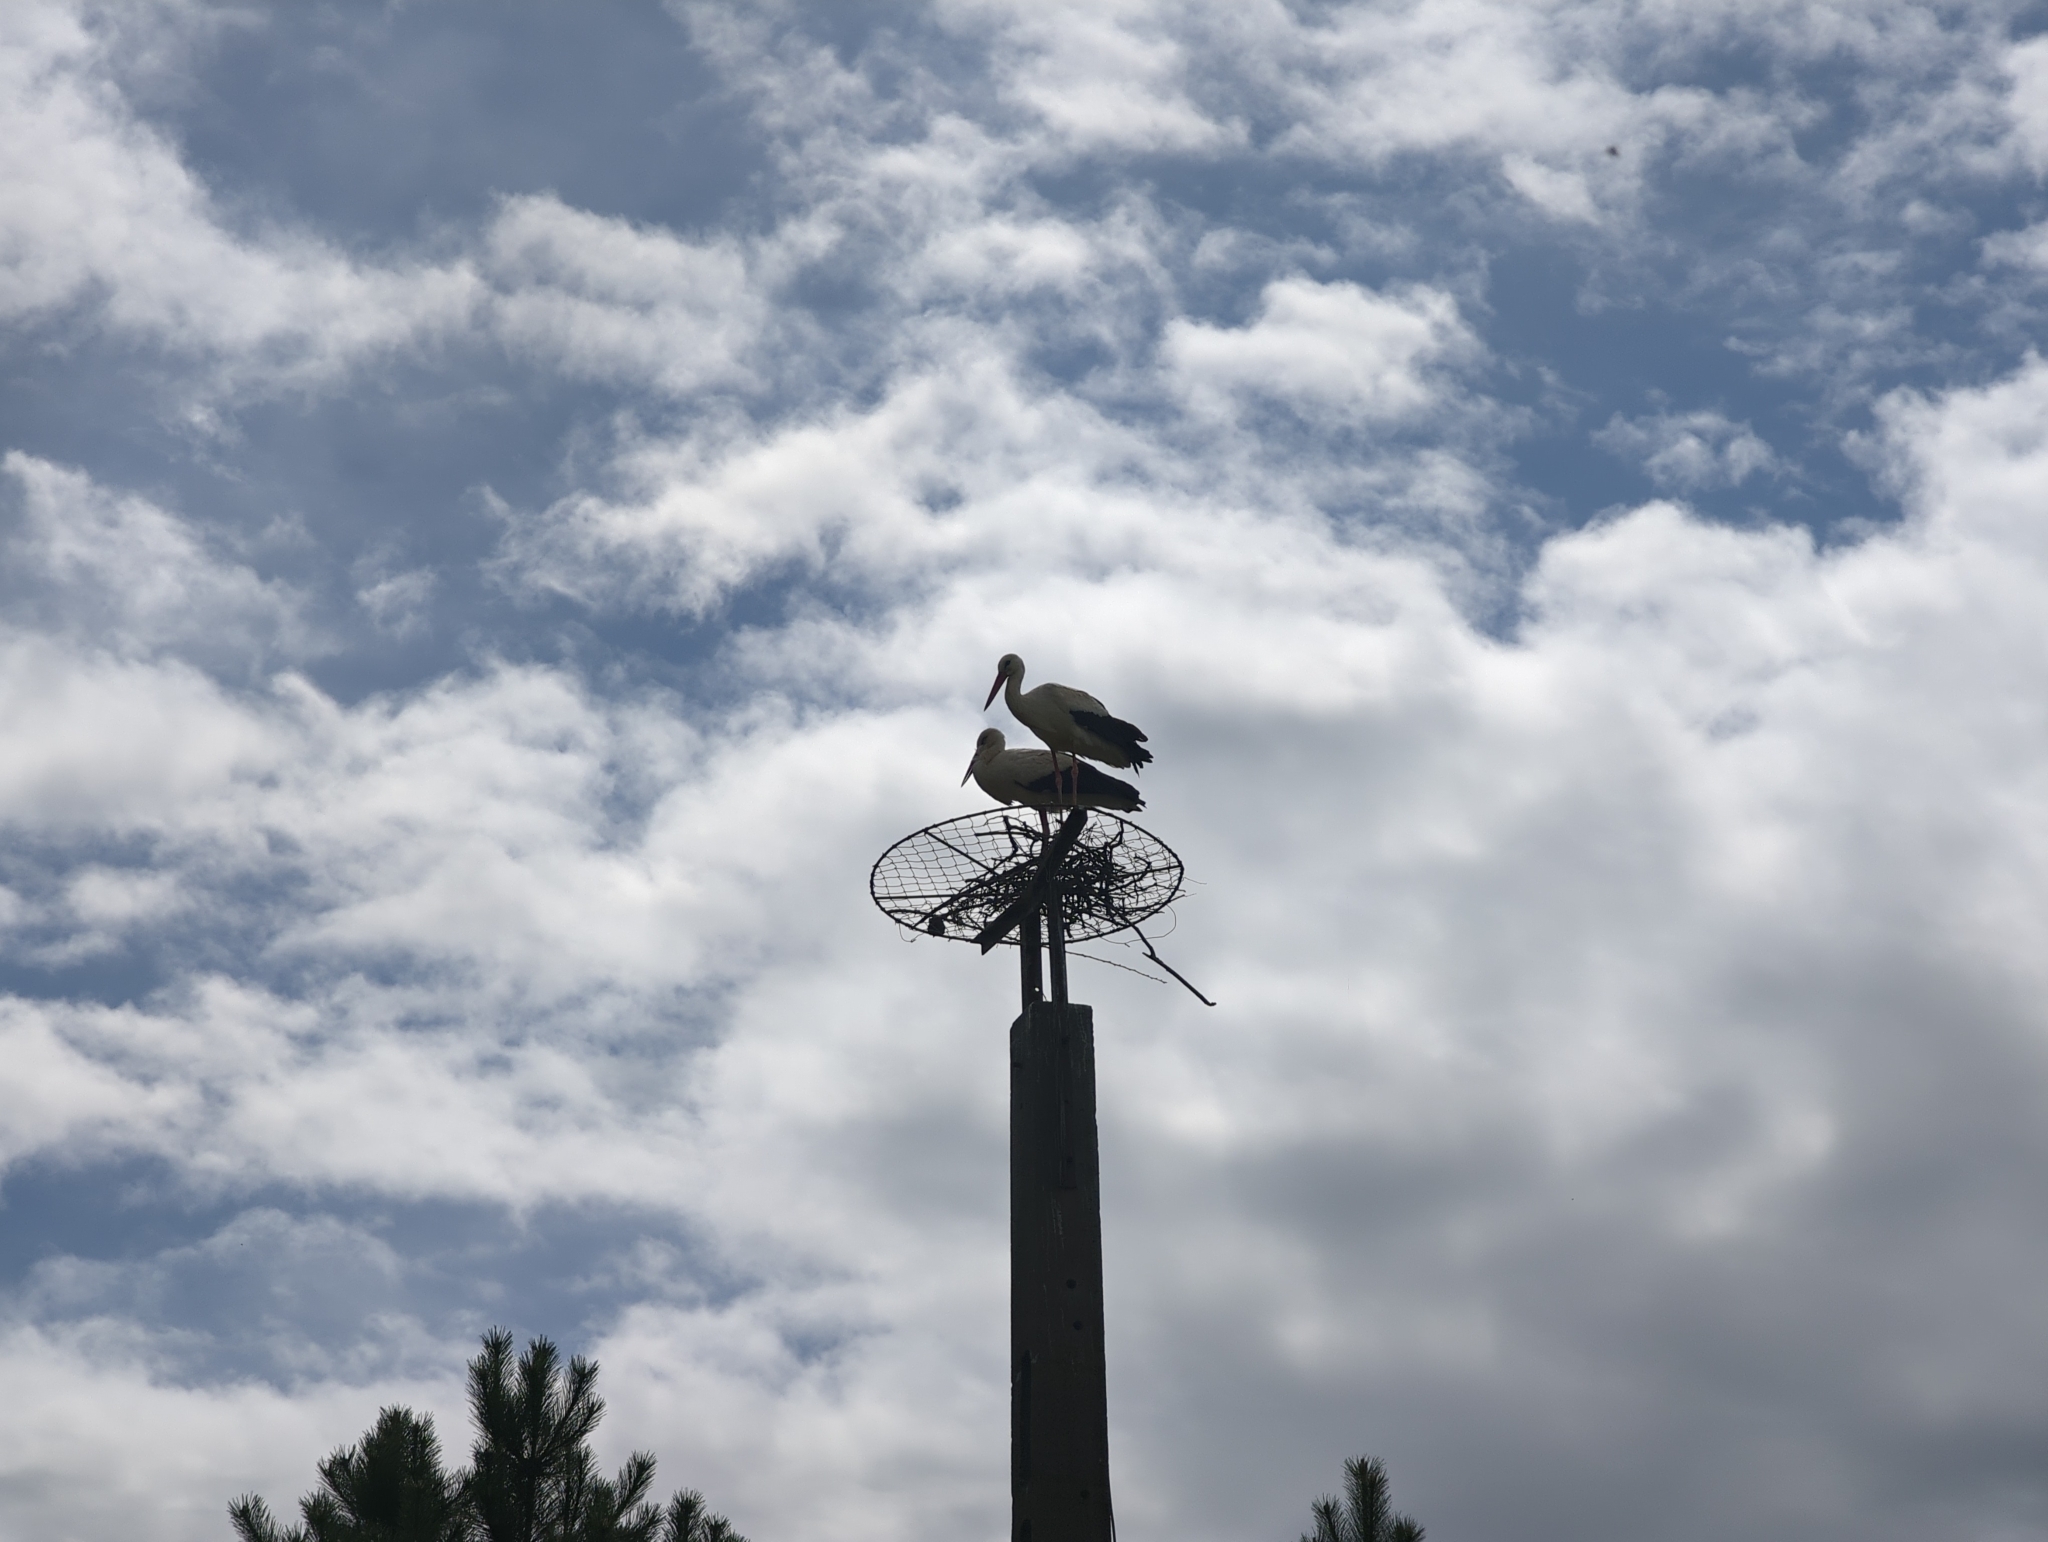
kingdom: Animalia
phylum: Chordata
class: Aves
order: Ciconiiformes
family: Ciconiidae
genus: Ciconia
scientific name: Ciconia ciconia
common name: White stork
